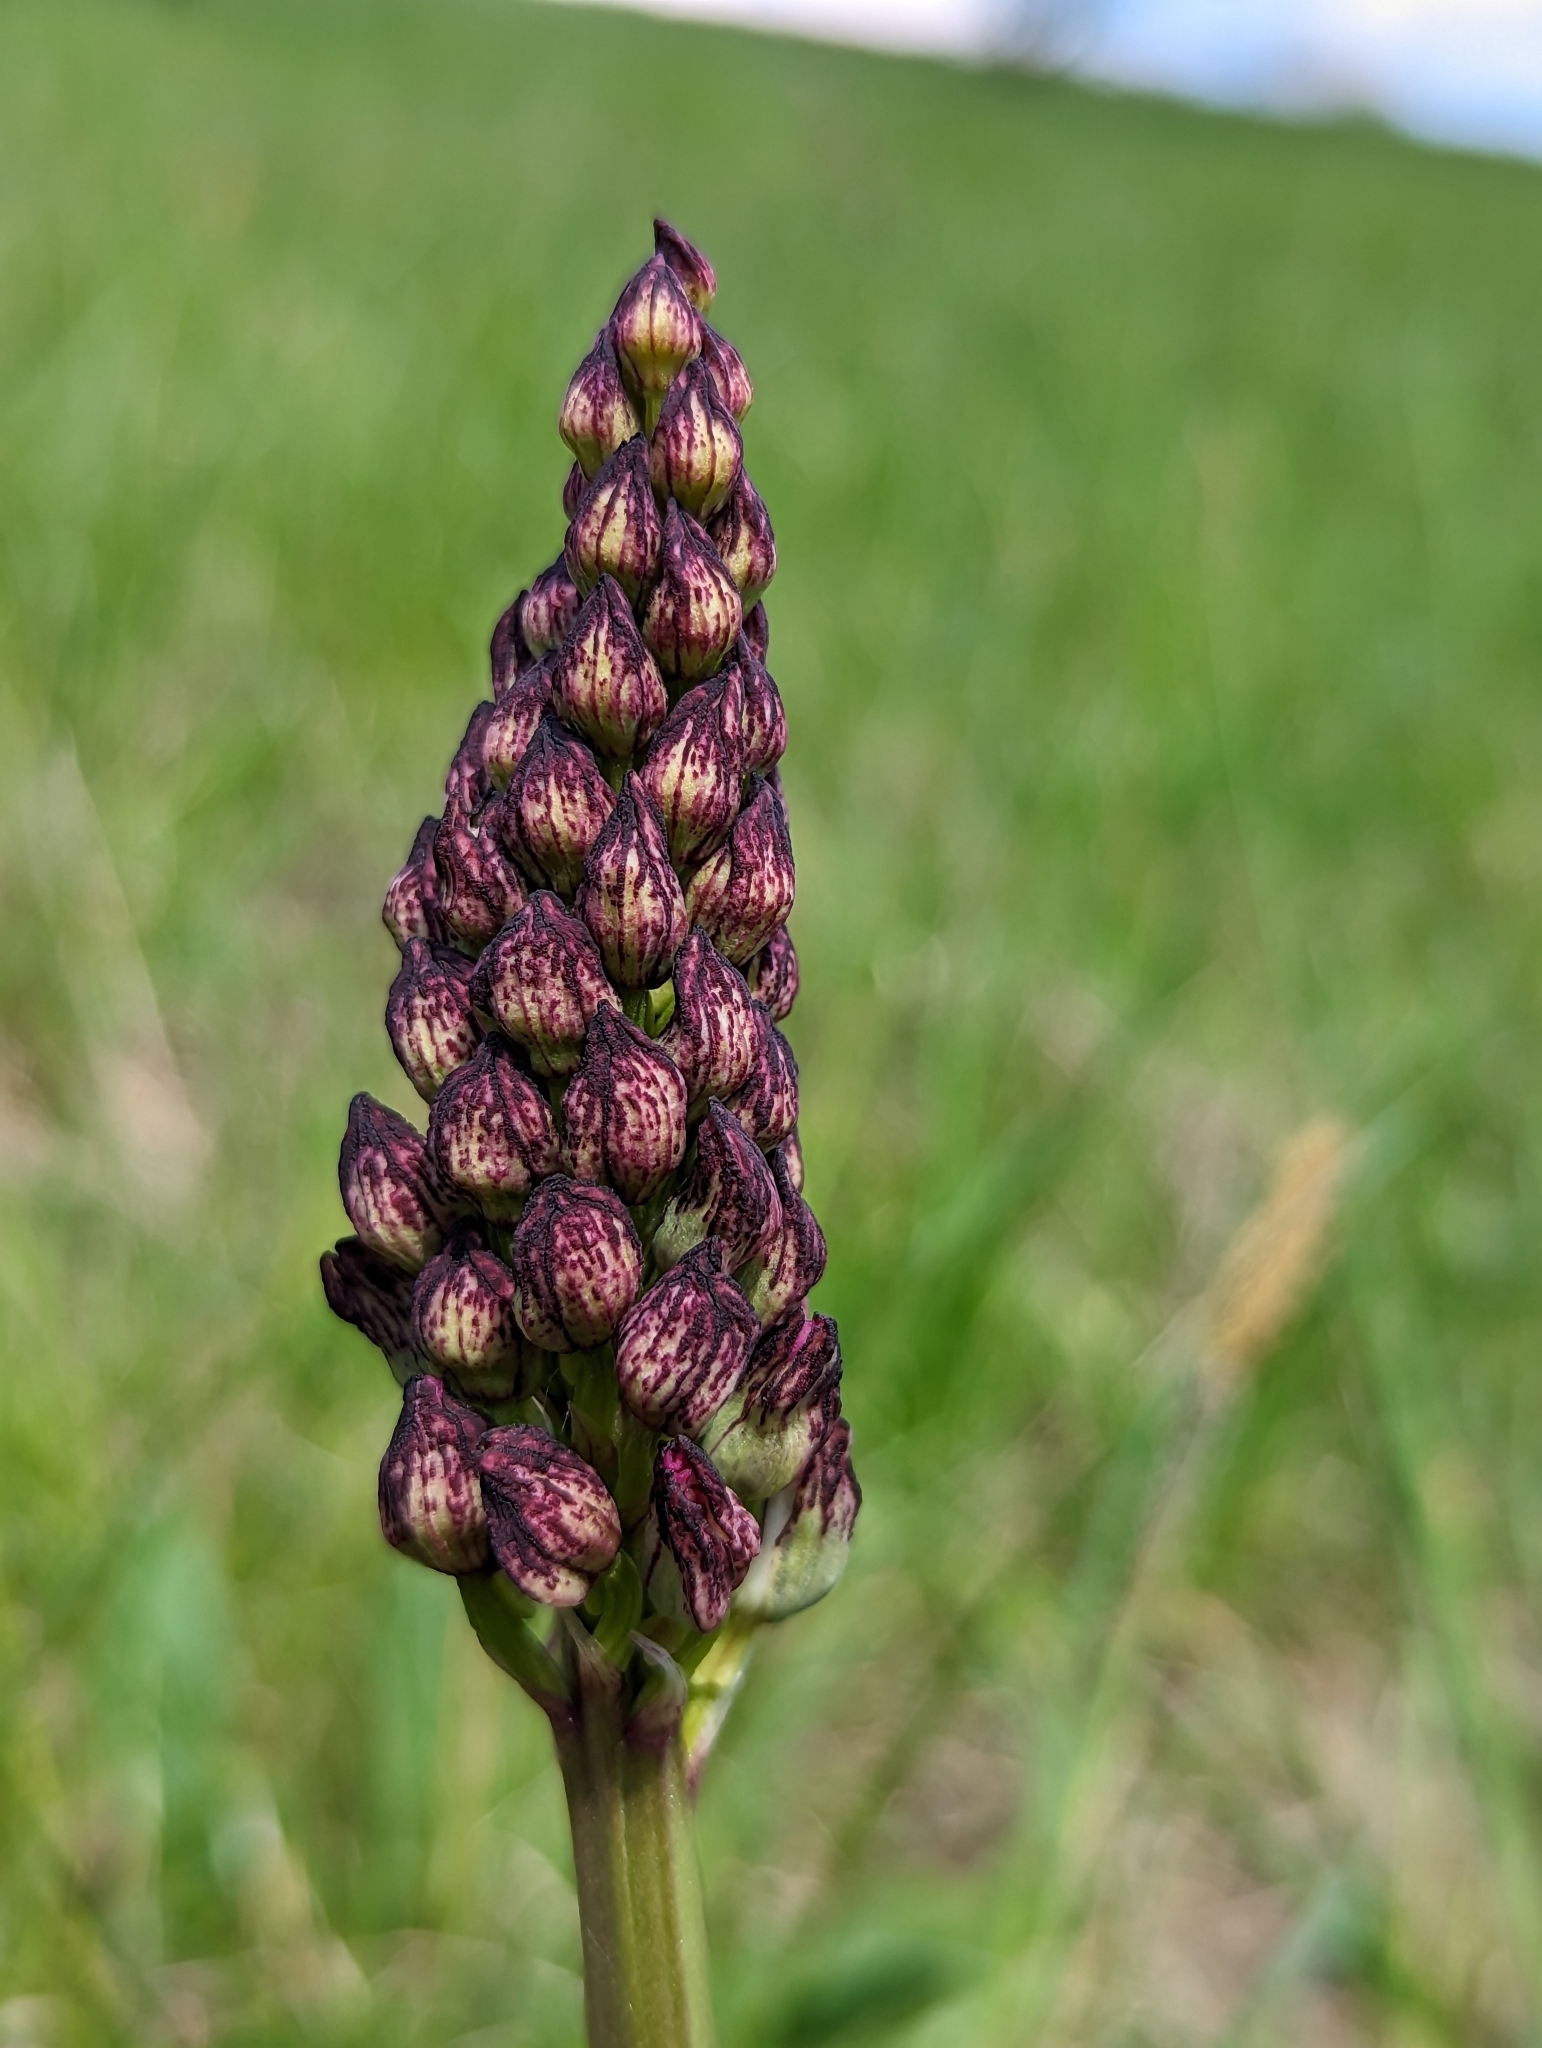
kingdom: Plantae
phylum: Tracheophyta
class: Liliopsida
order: Asparagales
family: Orchidaceae
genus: Orchis
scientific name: Orchis purpurea
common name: Lady orchid
